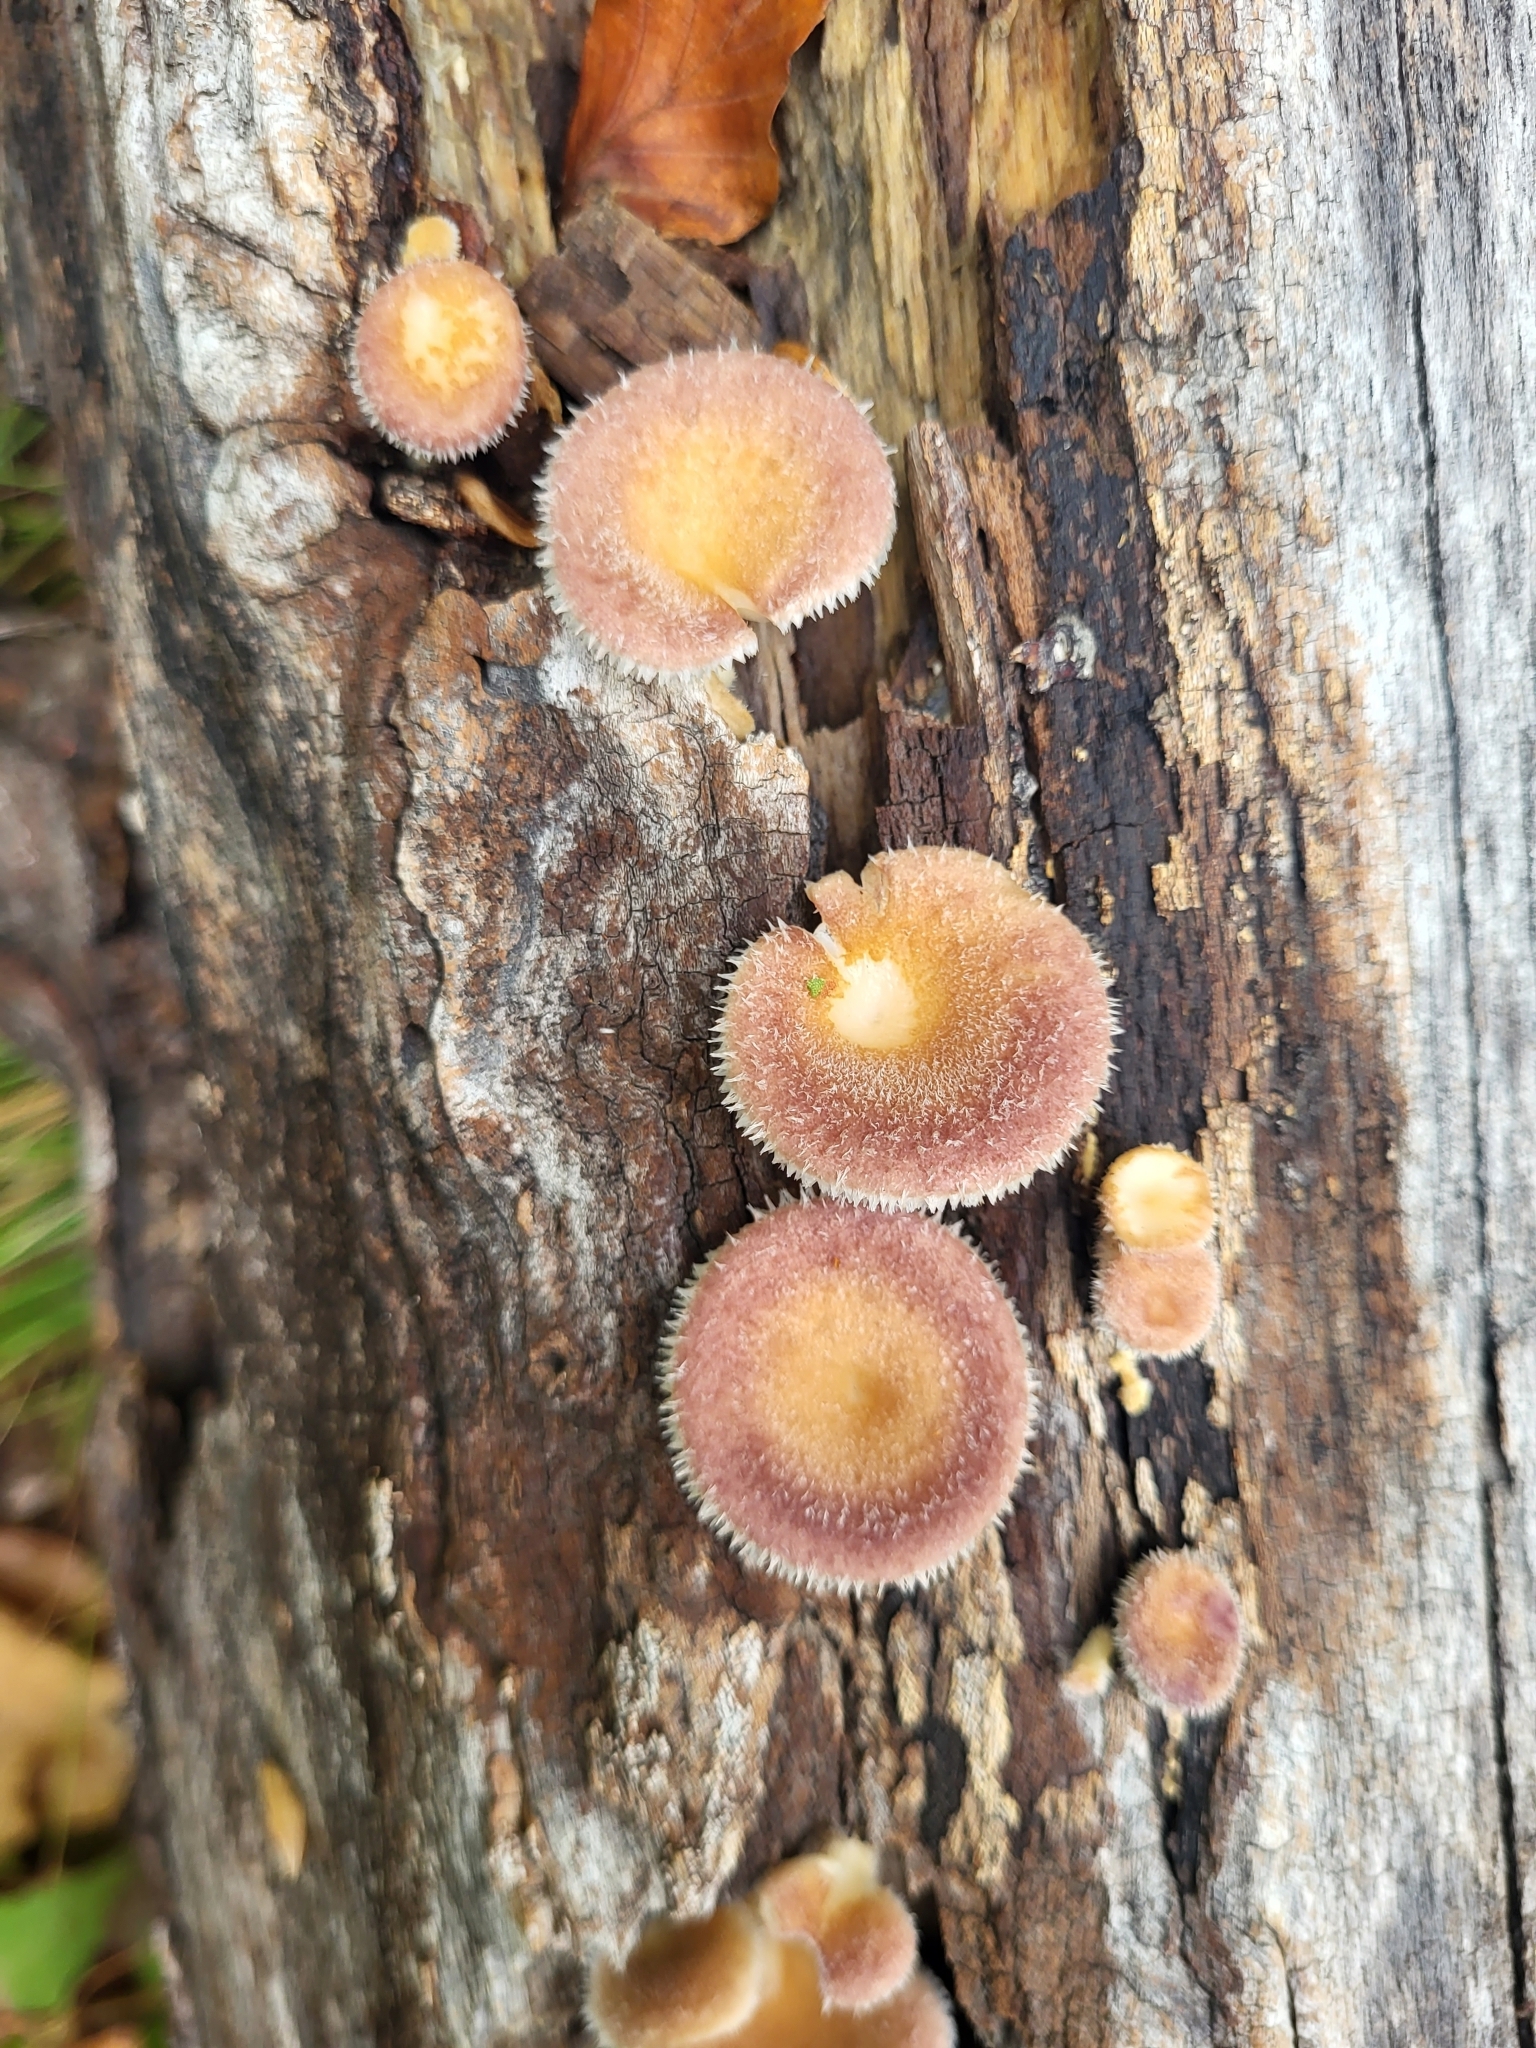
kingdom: Fungi
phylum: Basidiomycota
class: Agaricomycetes
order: Polyporales
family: Panaceae
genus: Panus
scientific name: Panus neostrigosus
